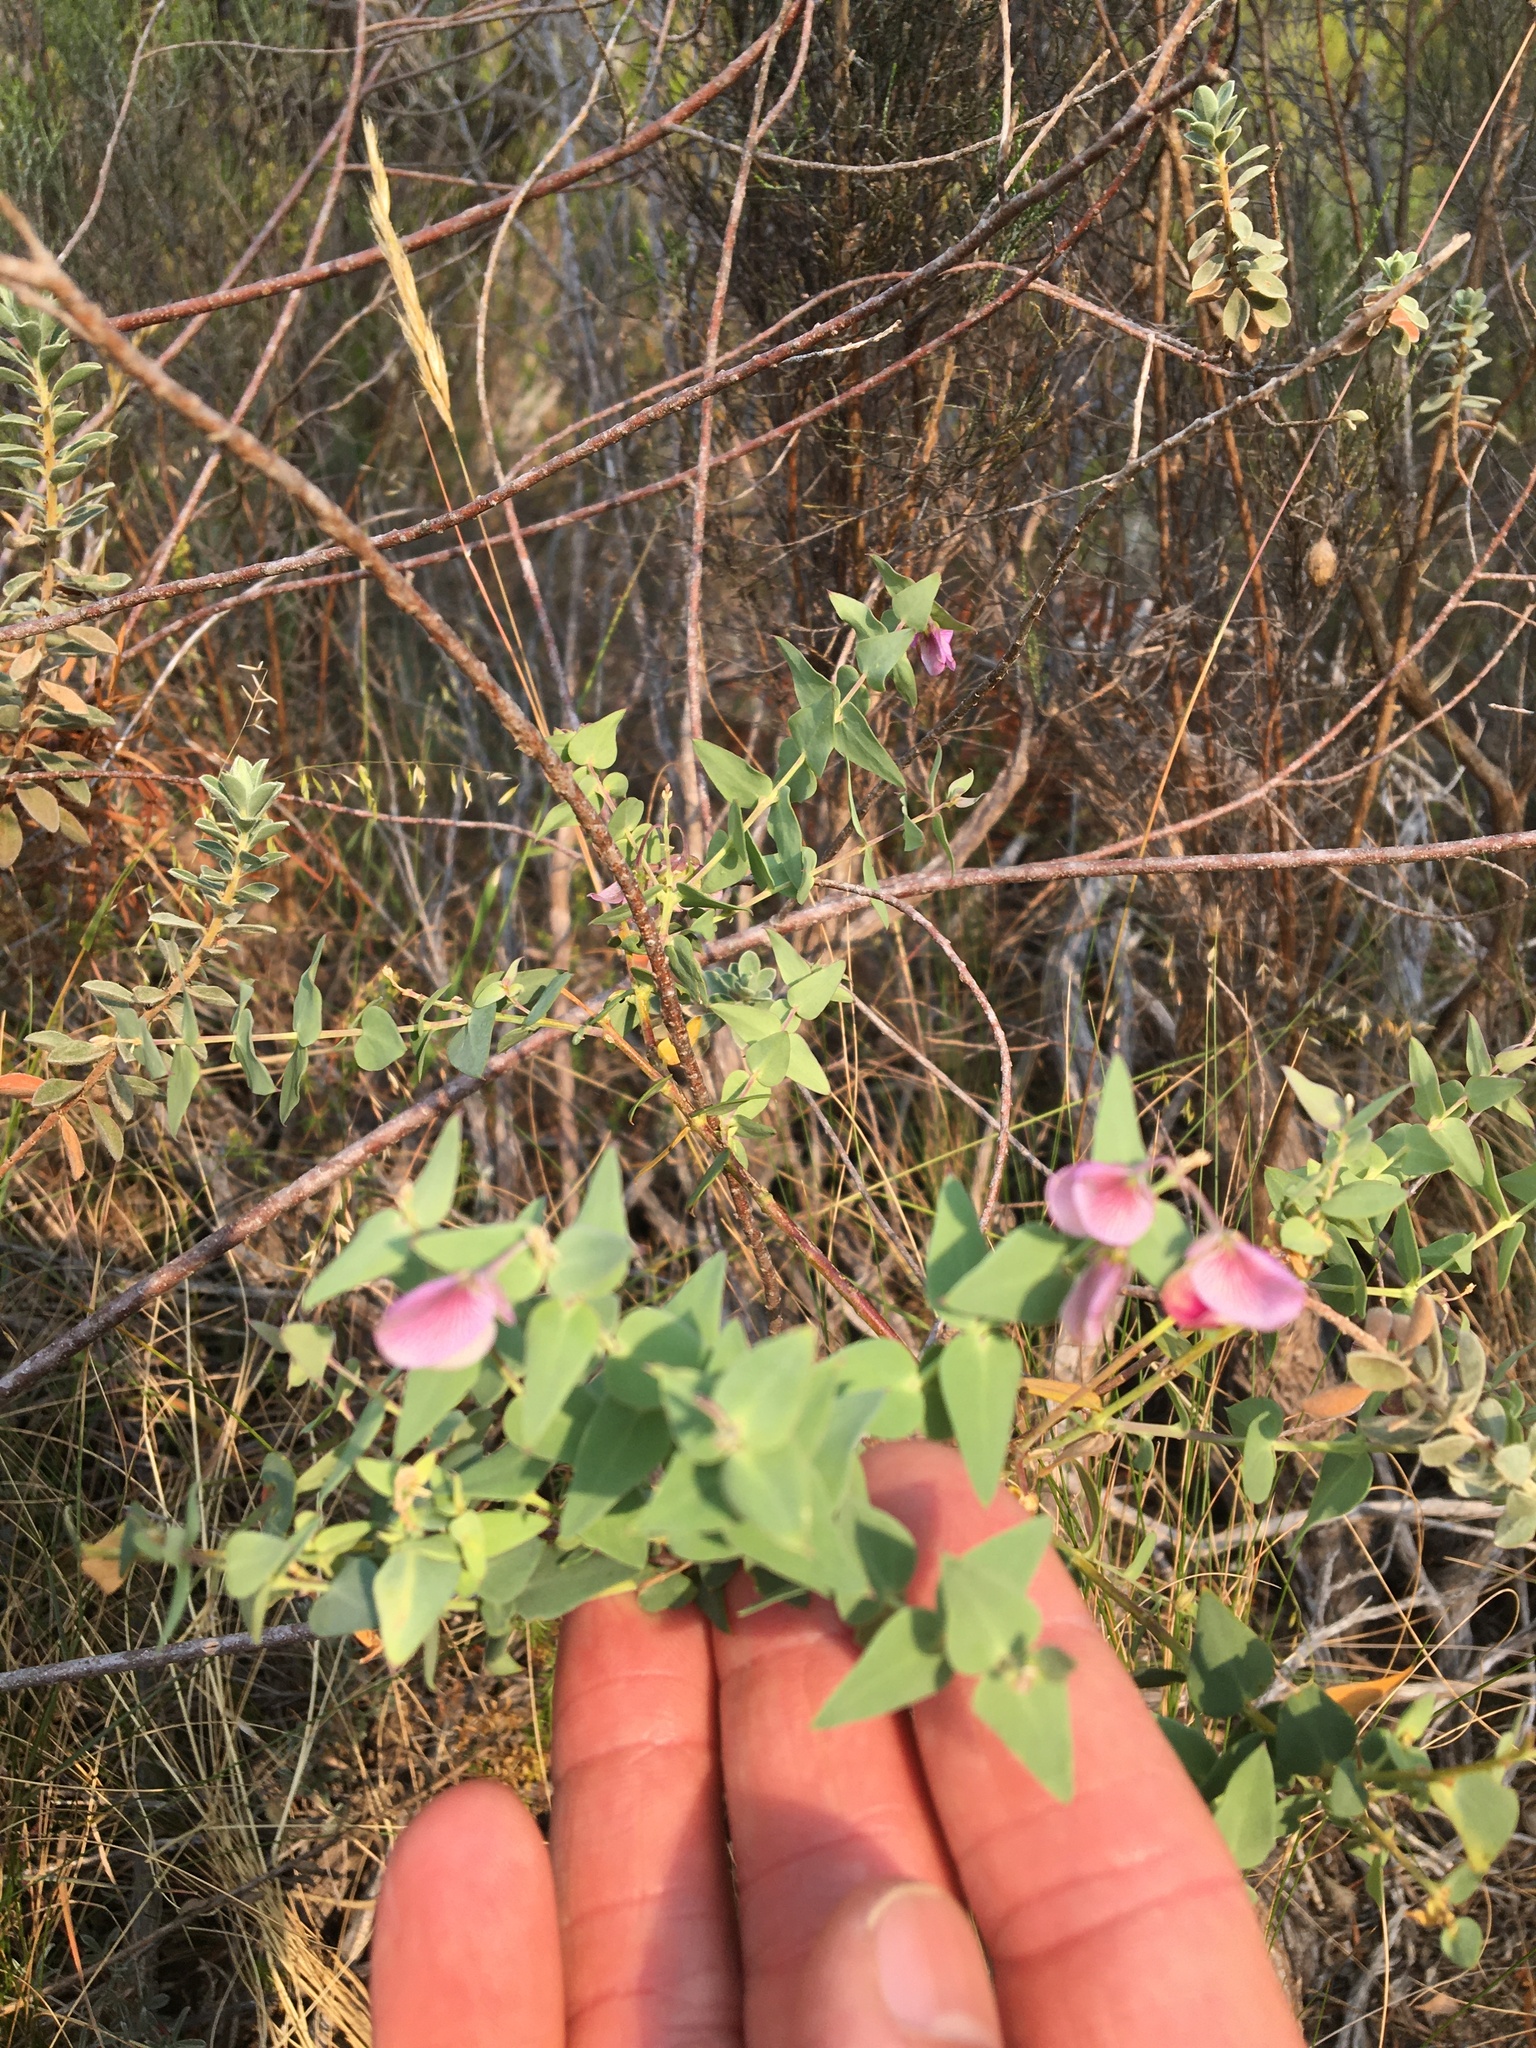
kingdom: Plantae
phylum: Tracheophyta
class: Magnoliopsida
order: Fabales
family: Polygalaceae
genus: Polygala
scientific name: Polygala fruticosa
